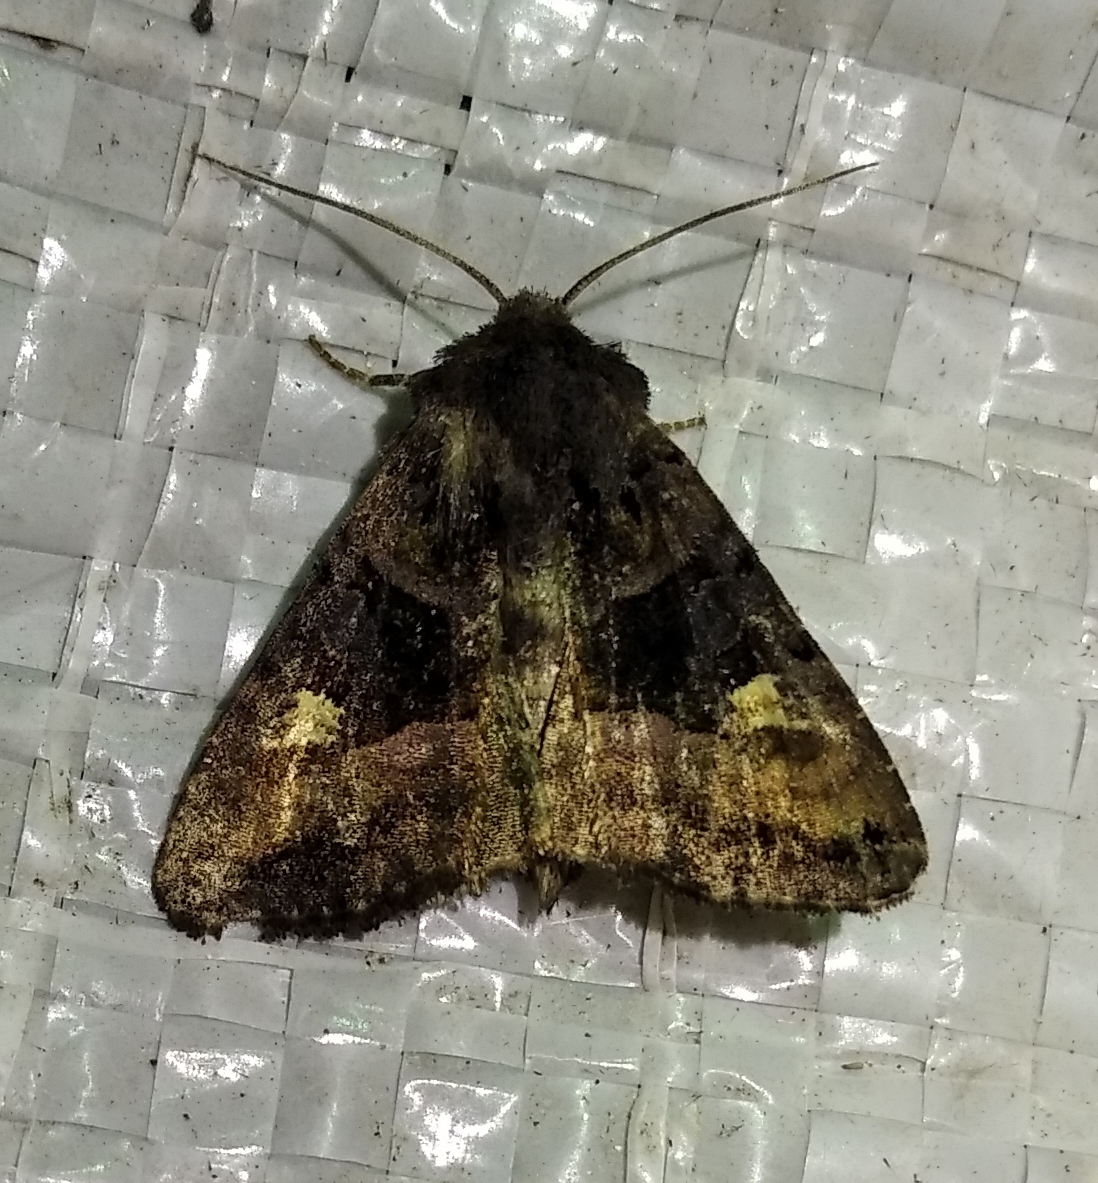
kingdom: Animalia
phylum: Arthropoda
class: Insecta
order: Lepidoptera
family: Noctuidae
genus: Euplexia
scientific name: Euplexia lucipara
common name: Small angle shades
